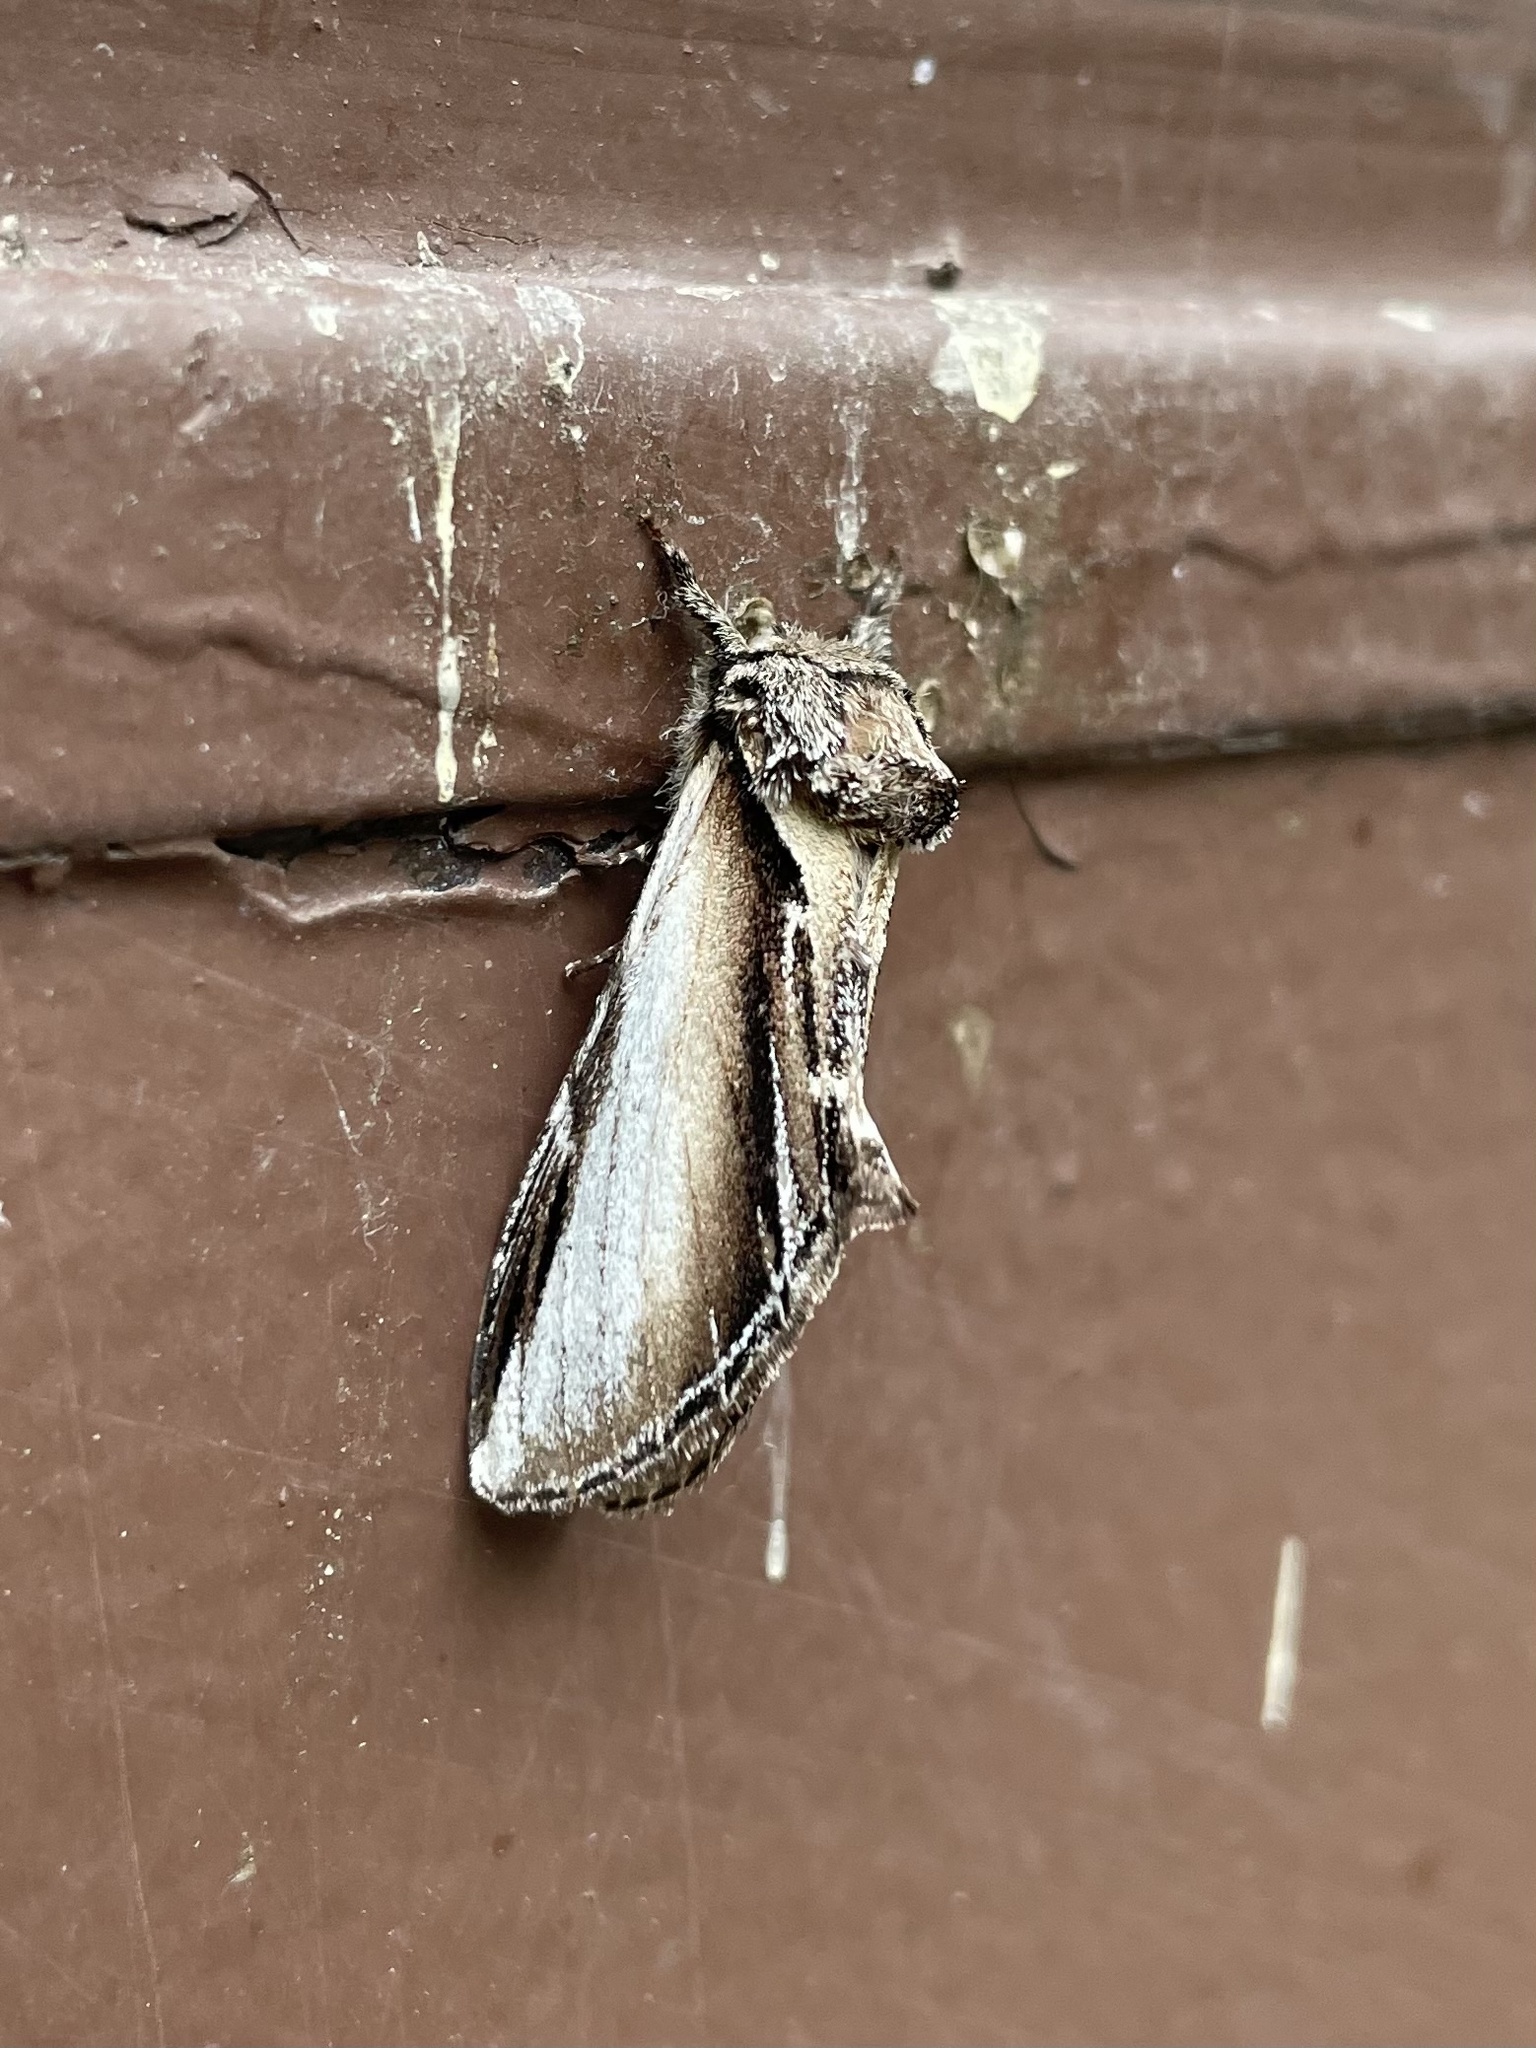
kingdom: Animalia
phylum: Arthropoda
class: Insecta
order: Lepidoptera
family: Notodontidae
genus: Pheosia
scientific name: Pheosia rimosa
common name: Black-rimmed prominent
